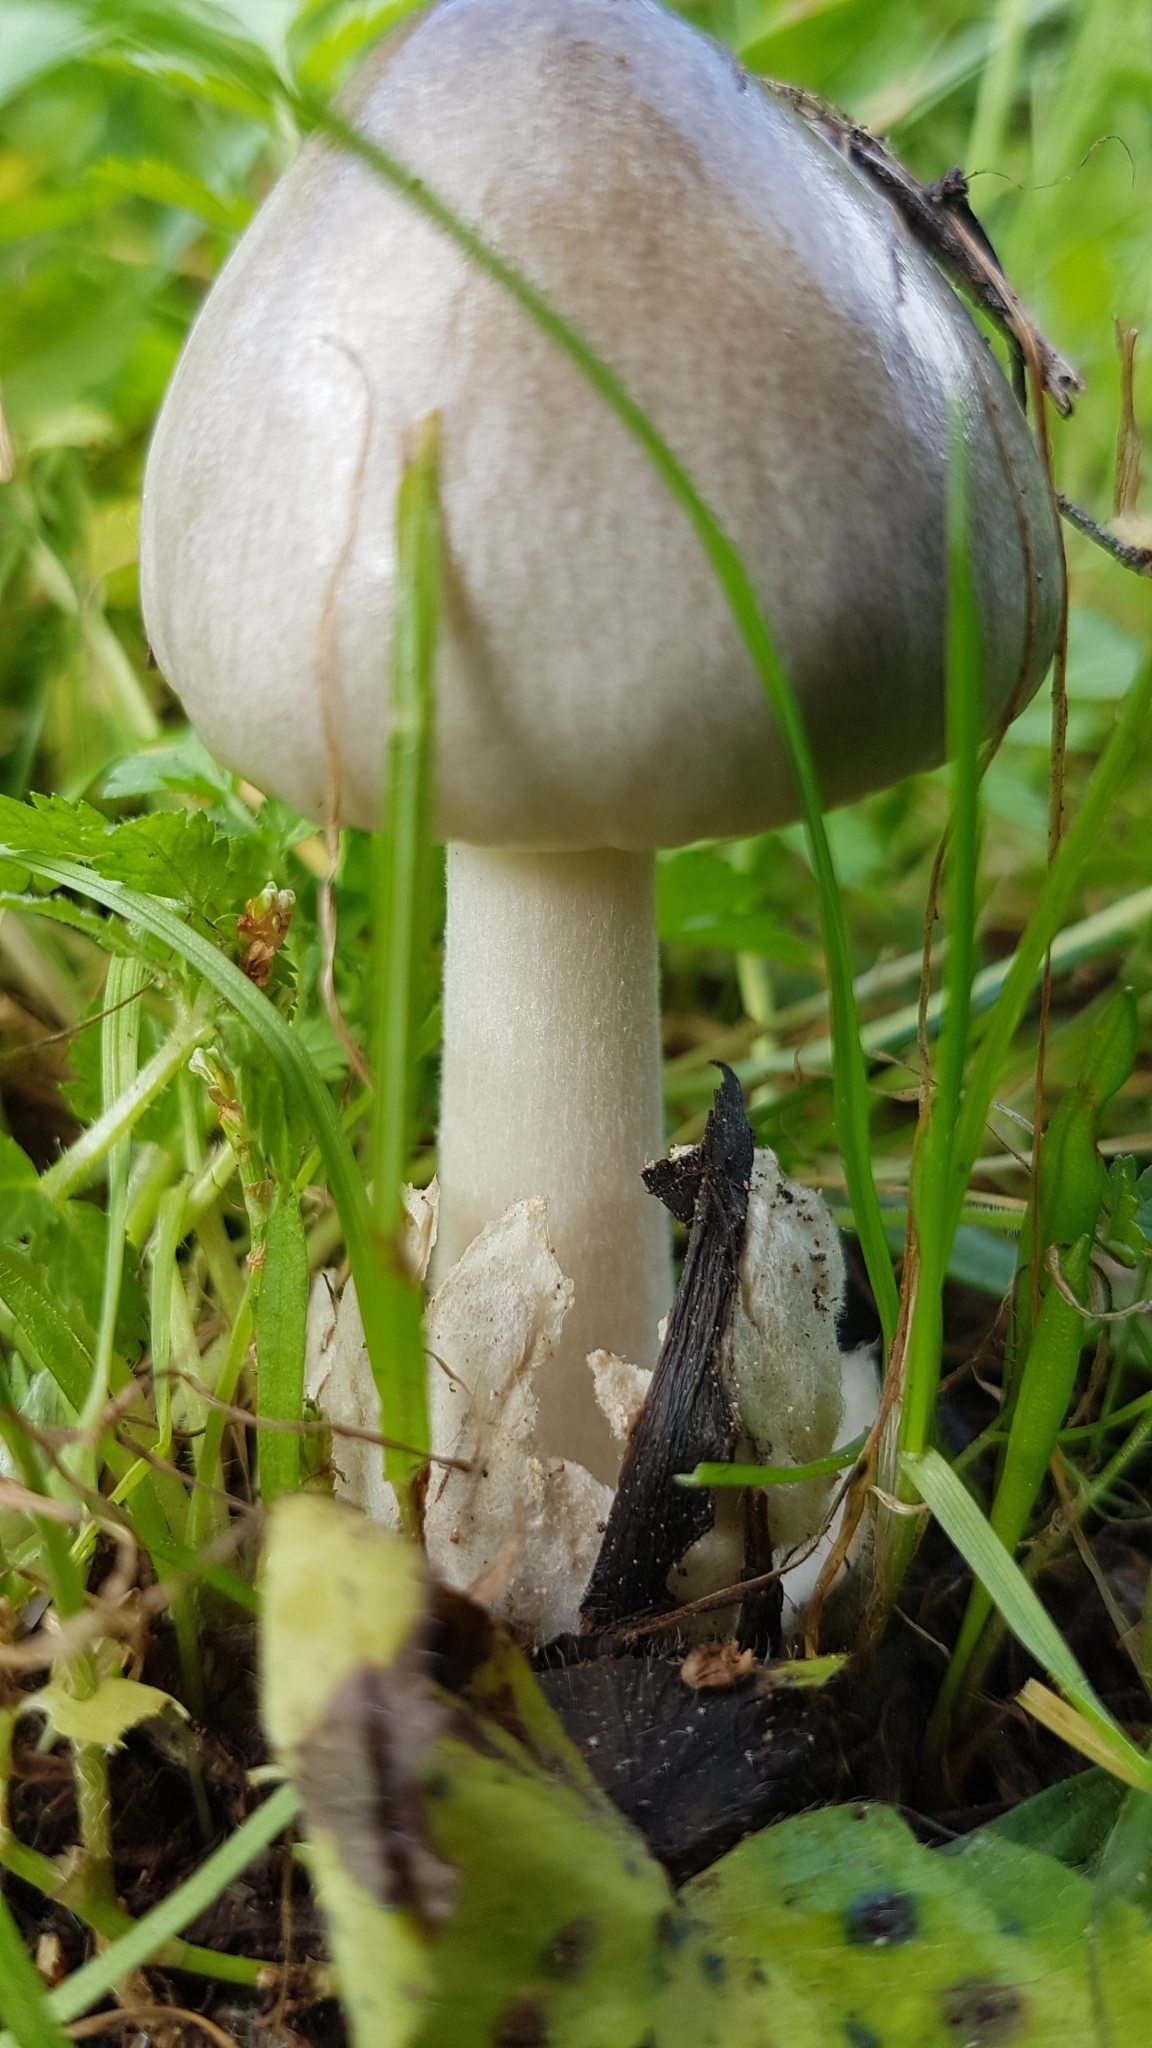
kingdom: Fungi
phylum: Basidiomycota
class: Agaricomycetes
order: Agaricales
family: Pluteaceae
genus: Volvopluteus
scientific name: Volvopluteus gloiocephalus
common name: Stubble rosegill
